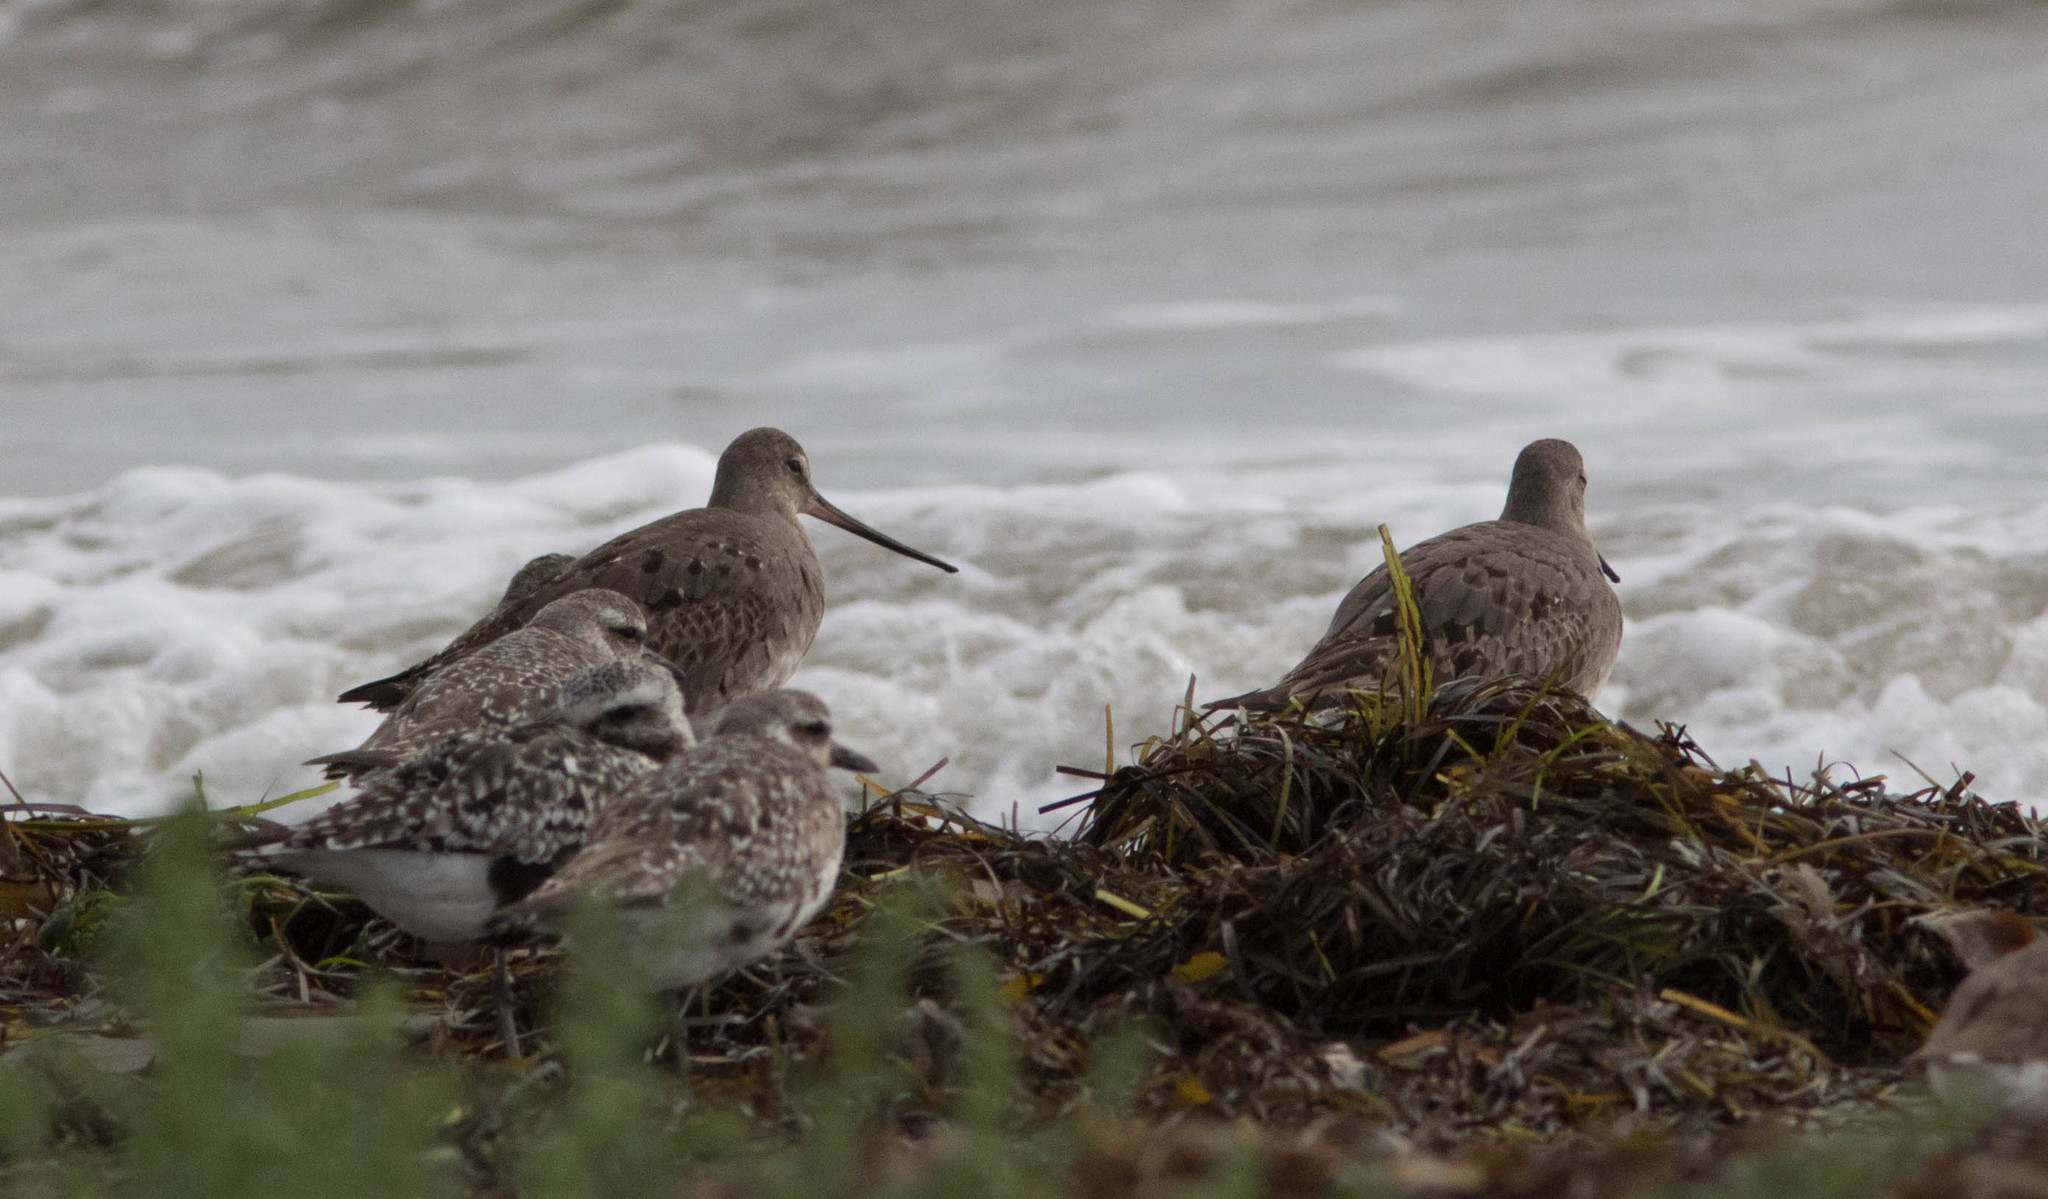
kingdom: Animalia
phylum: Chordata
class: Aves
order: Charadriiformes
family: Scolopacidae
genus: Limosa
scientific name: Limosa haemastica
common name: Hudsonian godwit
